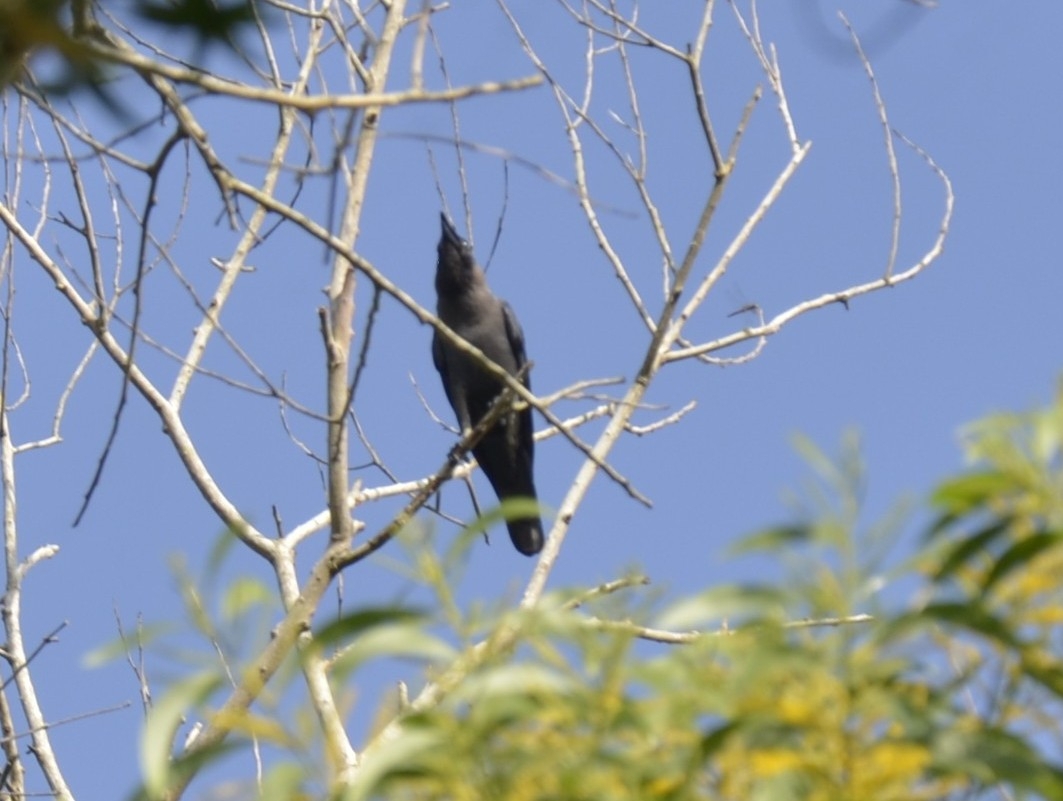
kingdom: Animalia
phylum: Chordata
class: Aves
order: Passeriformes
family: Corvidae
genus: Corvus
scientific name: Corvus splendens
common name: House crow
